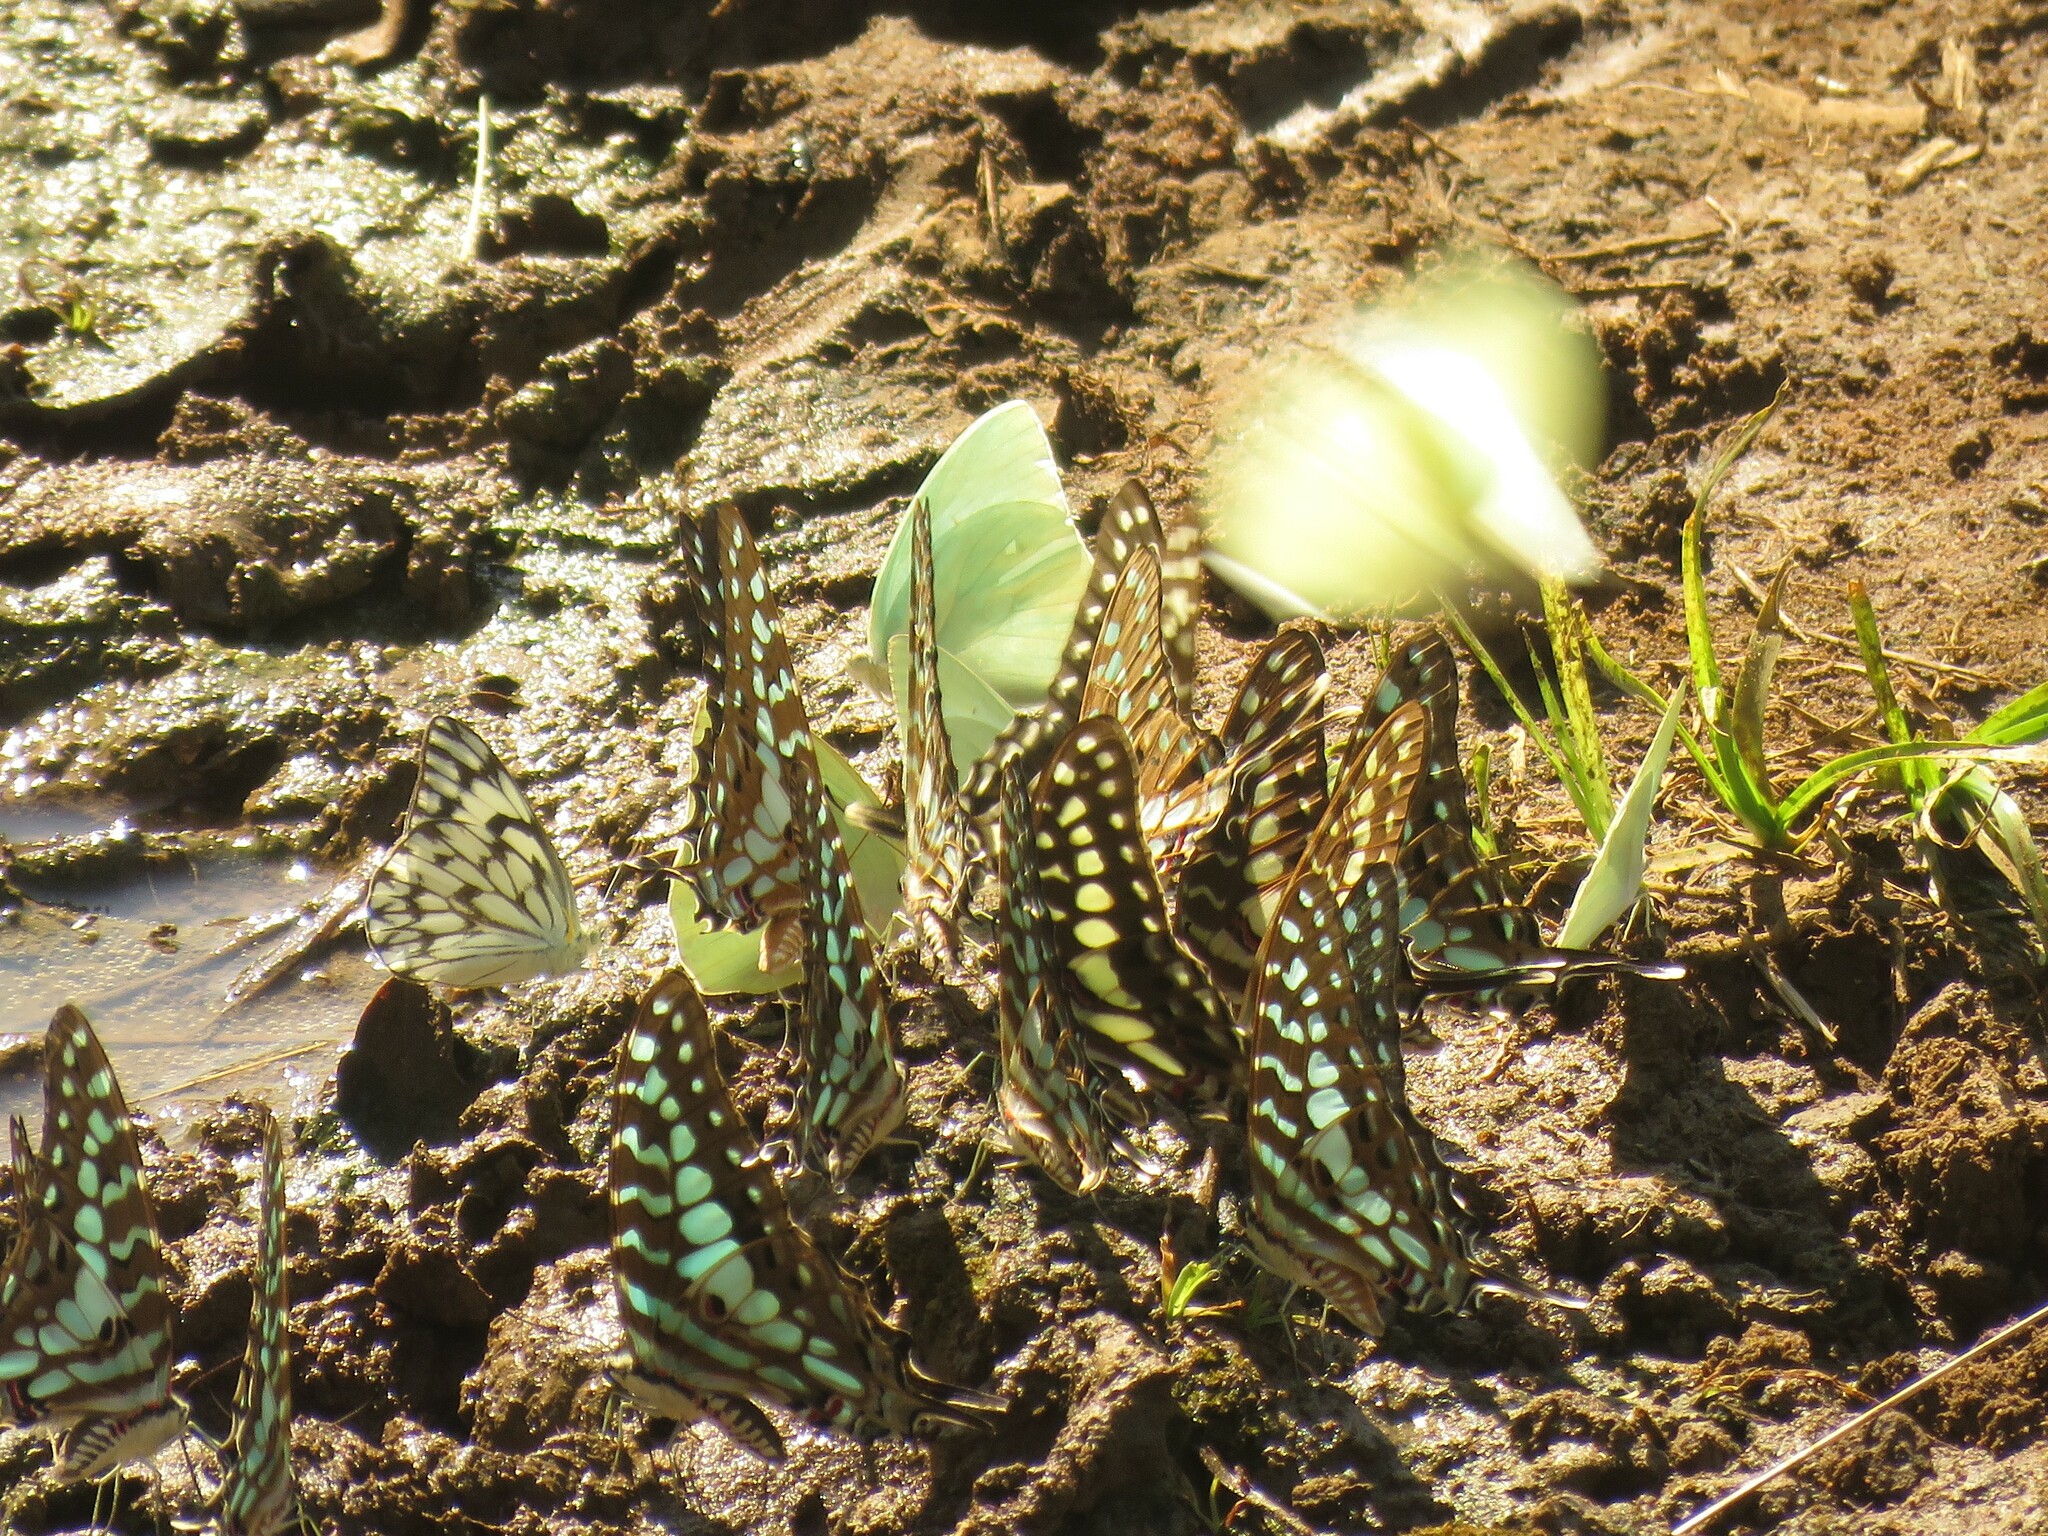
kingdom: Animalia
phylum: Arthropoda
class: Insecta
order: Lepidoptera
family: Pieridae
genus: Catopsilia
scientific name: Catopsilia florella
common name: African migrant
